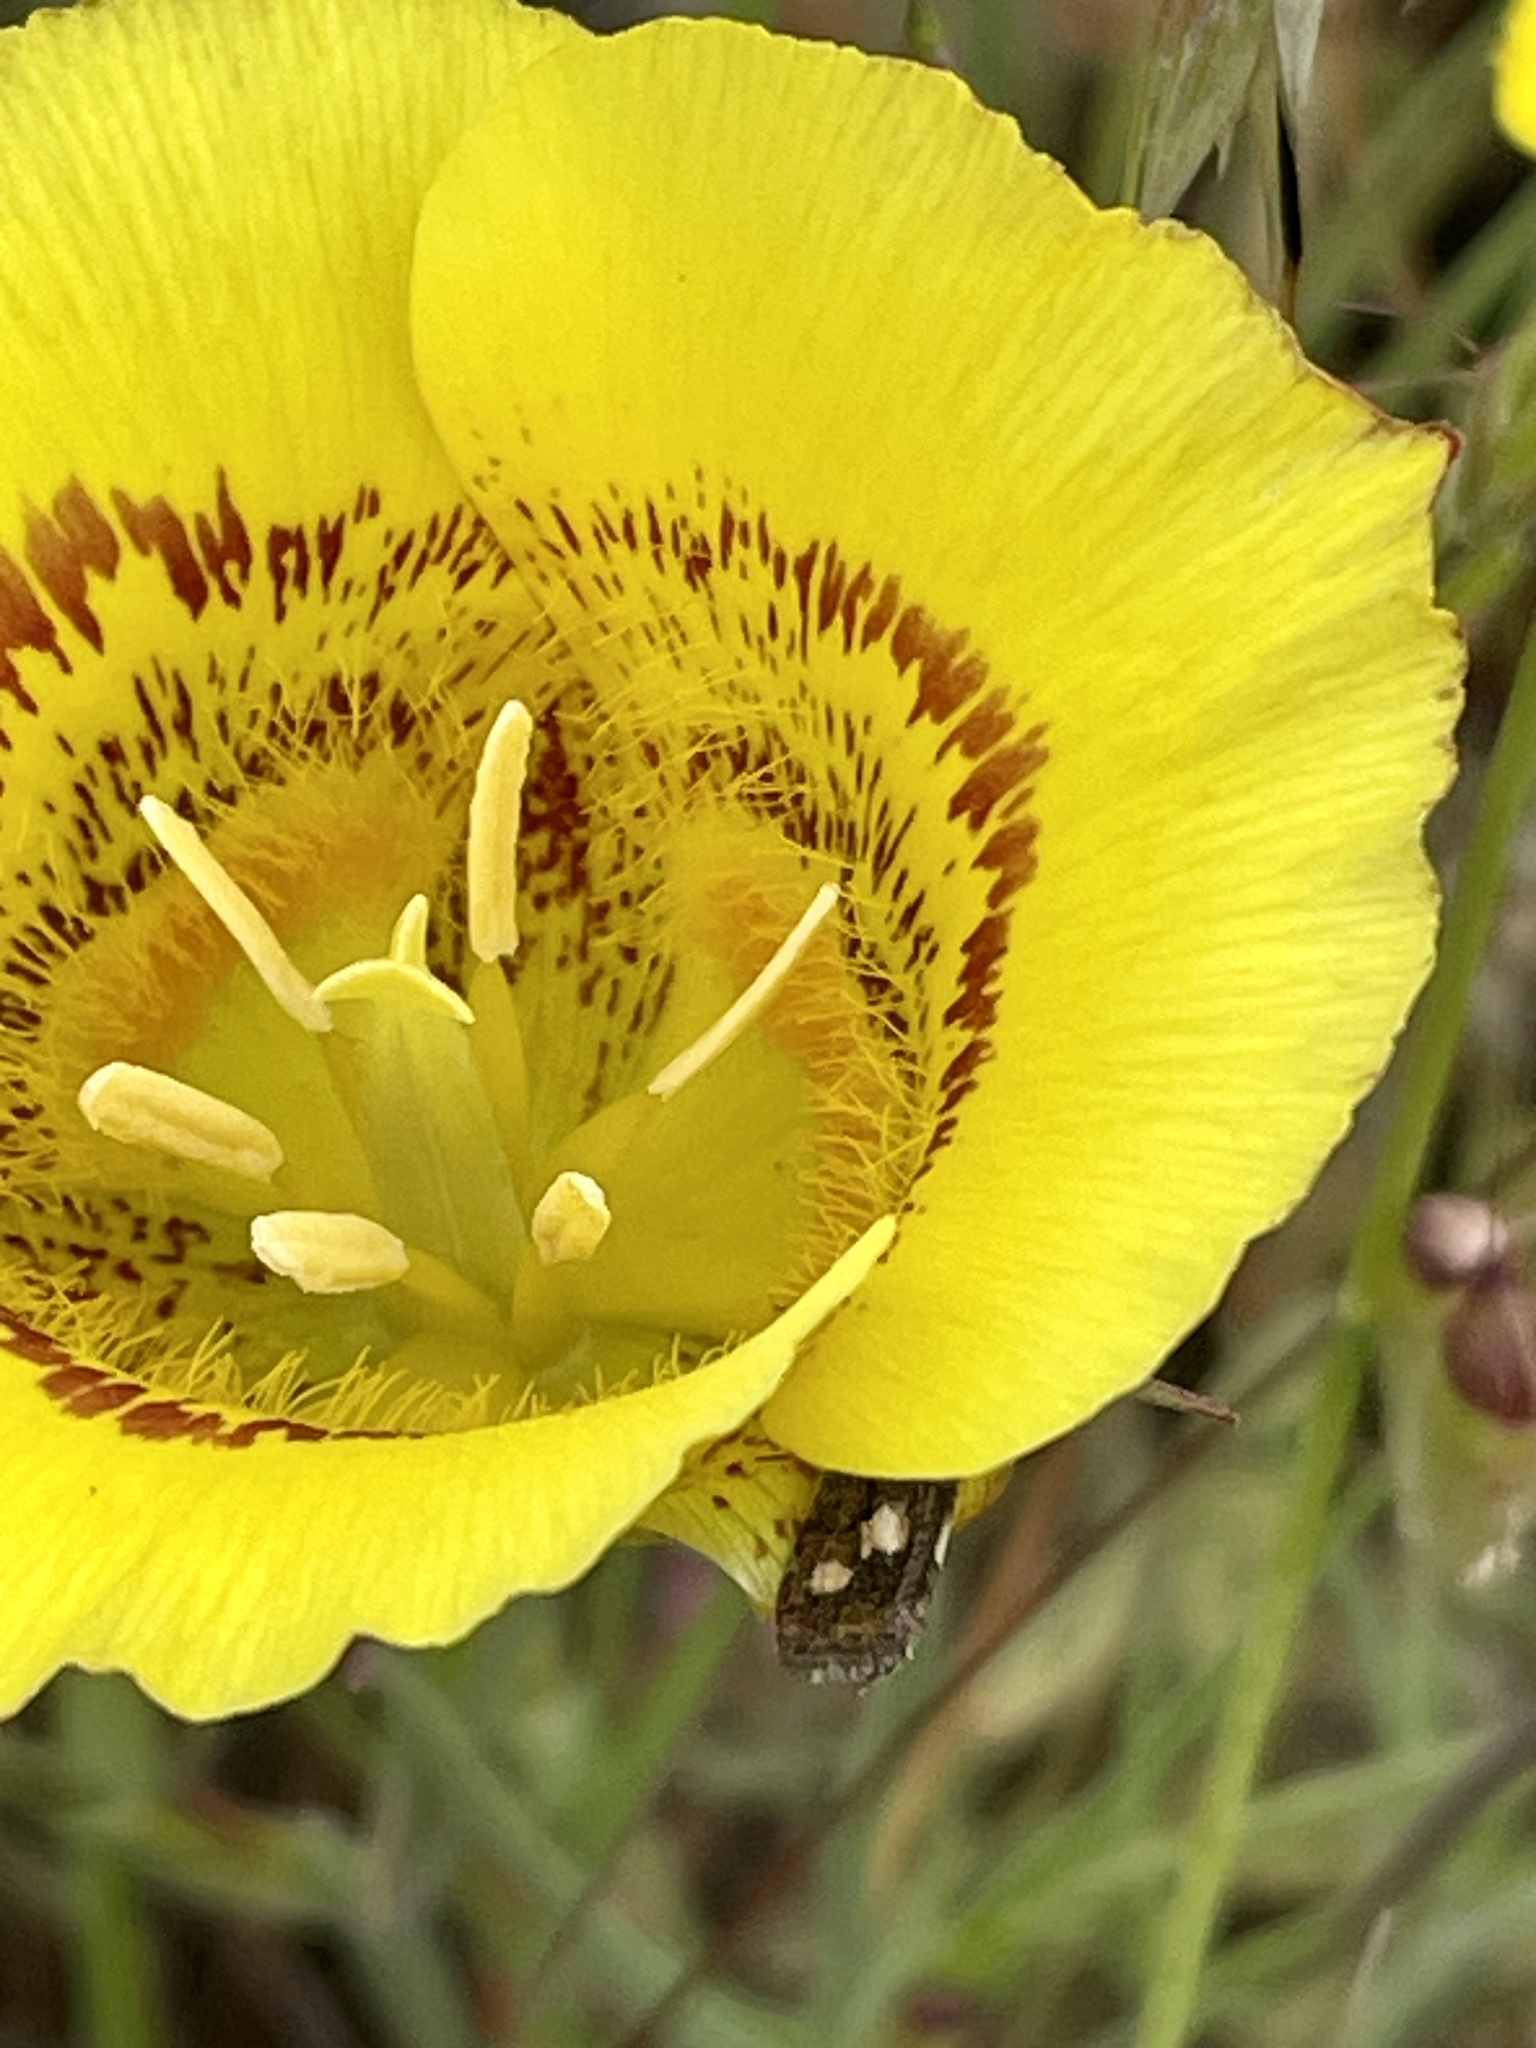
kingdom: Plantae
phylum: Tracheophyta
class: Liliopsida
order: Liliales
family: Liliaceae
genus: Calochortus
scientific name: Calochortus luteus
